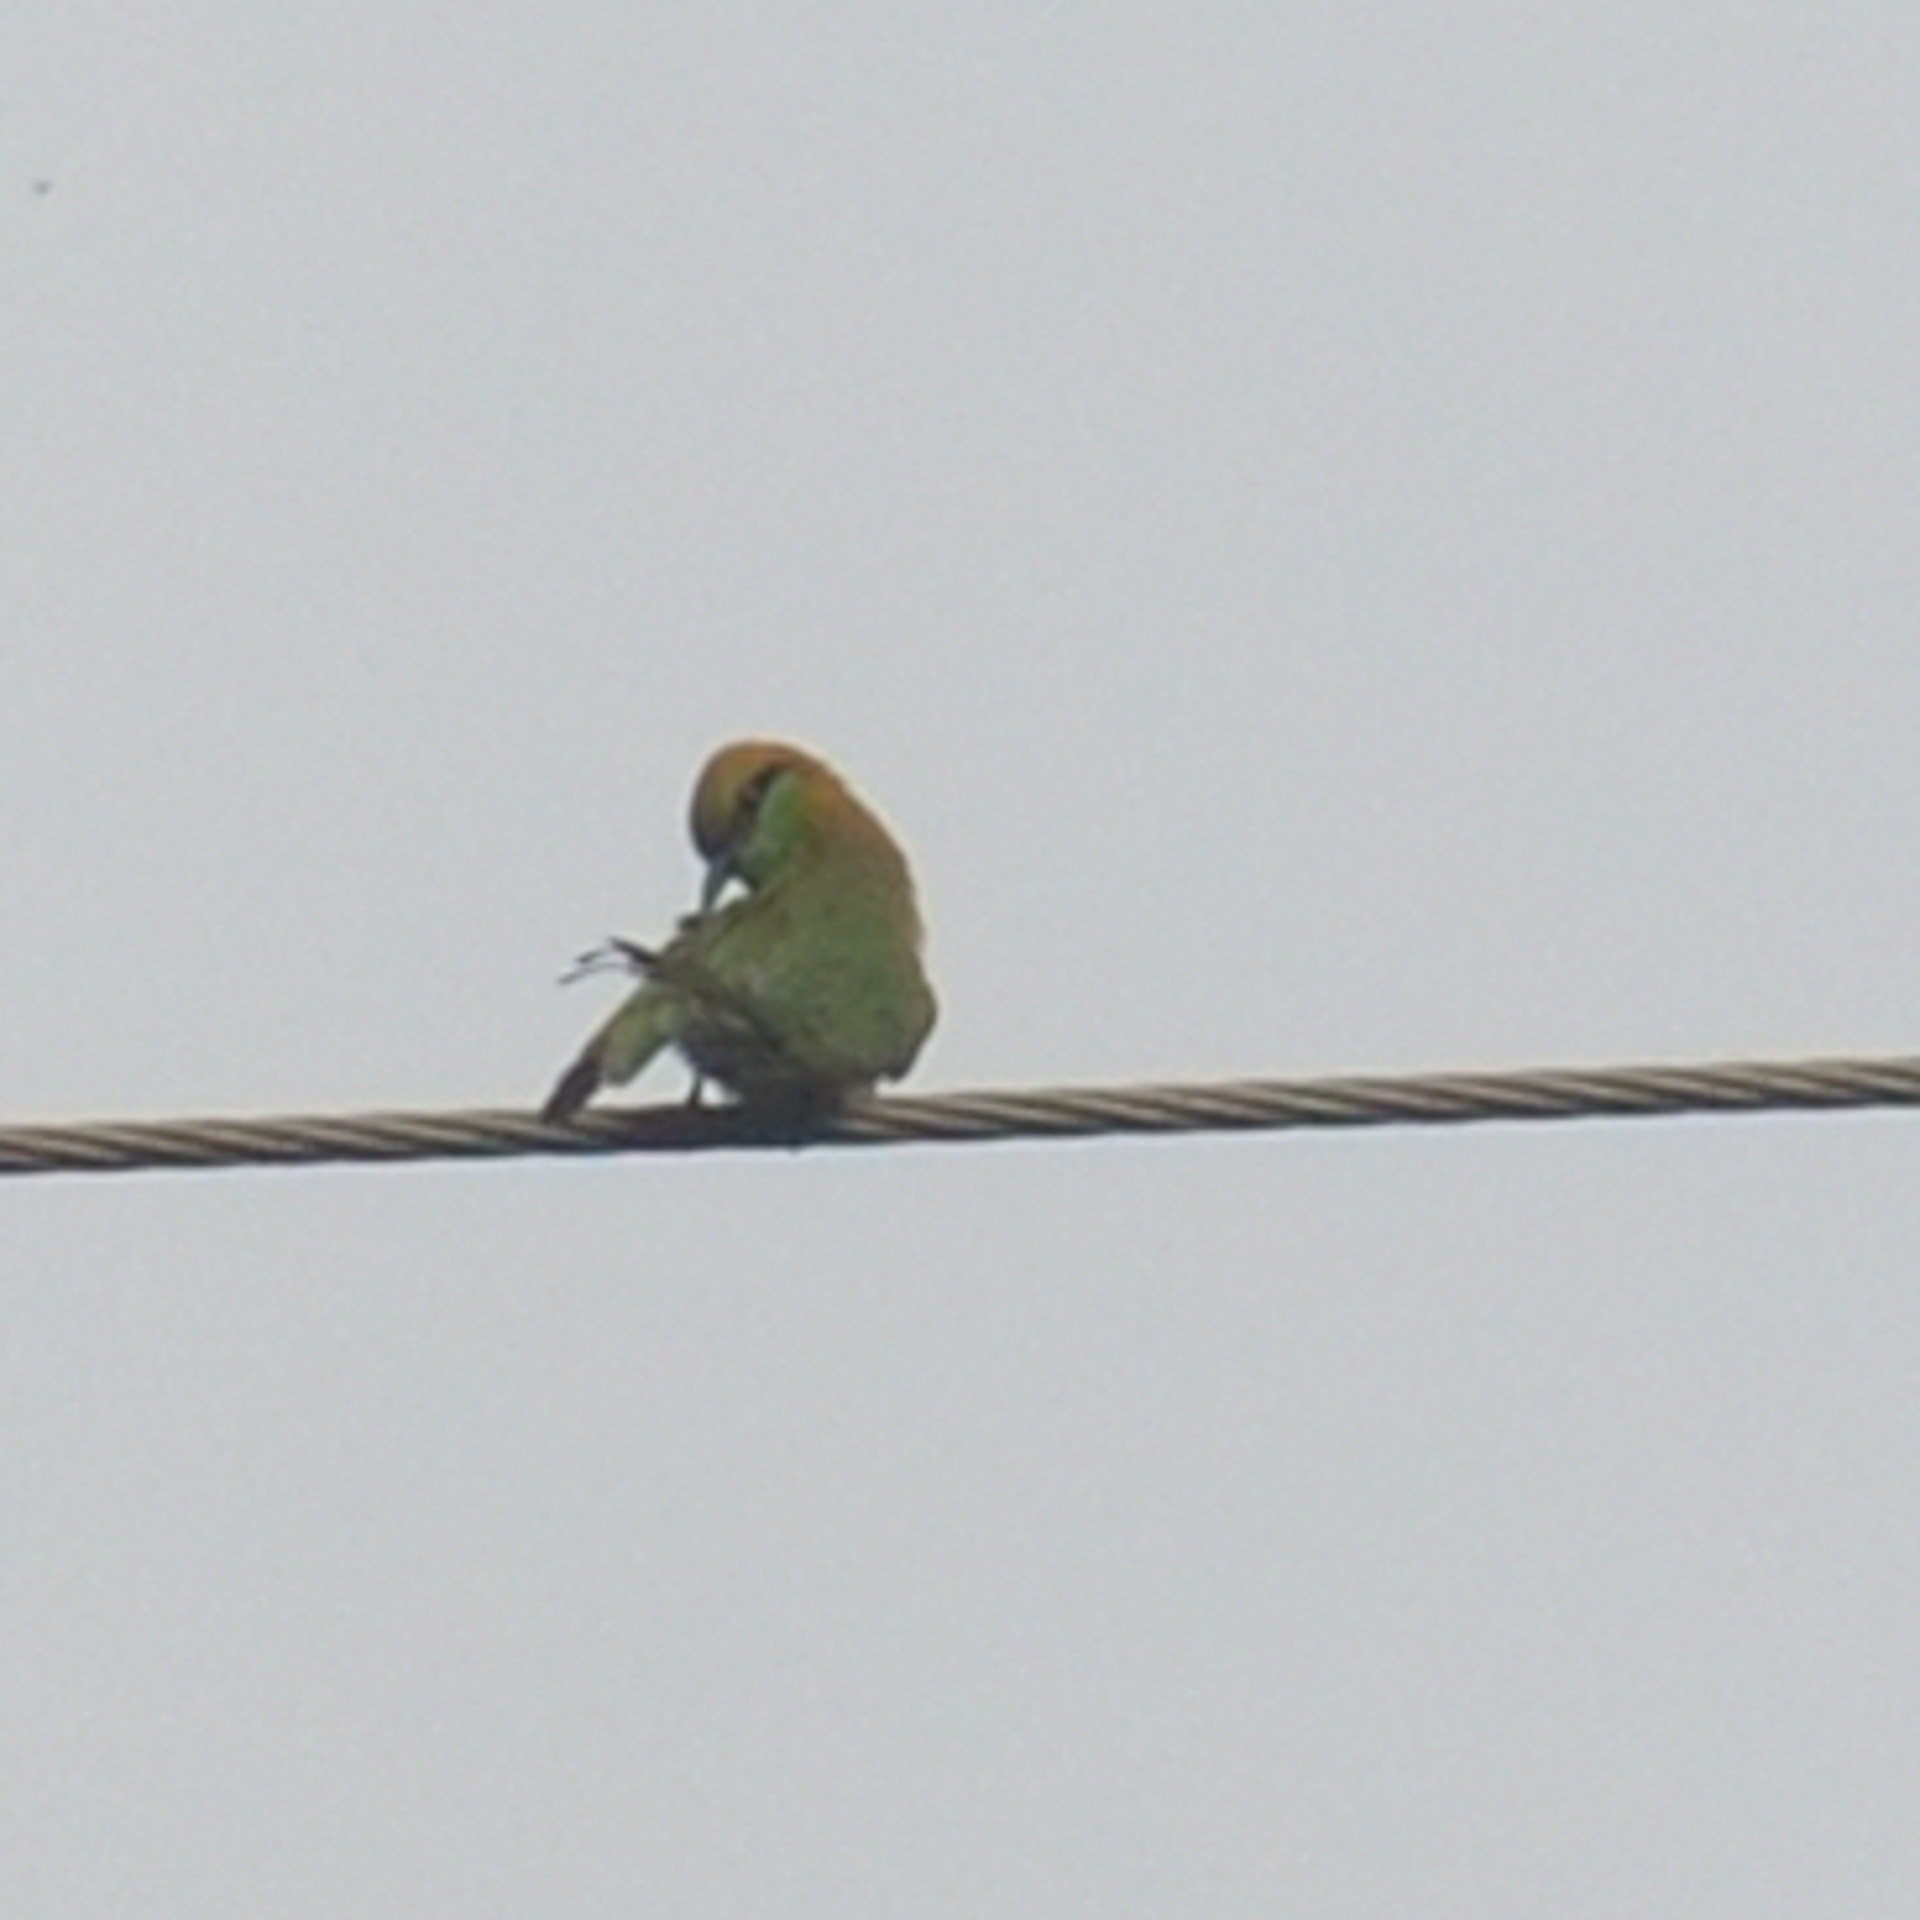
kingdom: Animalia
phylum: Chordata
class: Aves
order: Coraciiformes
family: Meropidae
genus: Merops
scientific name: Merops orientalis
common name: Green bee-eater
